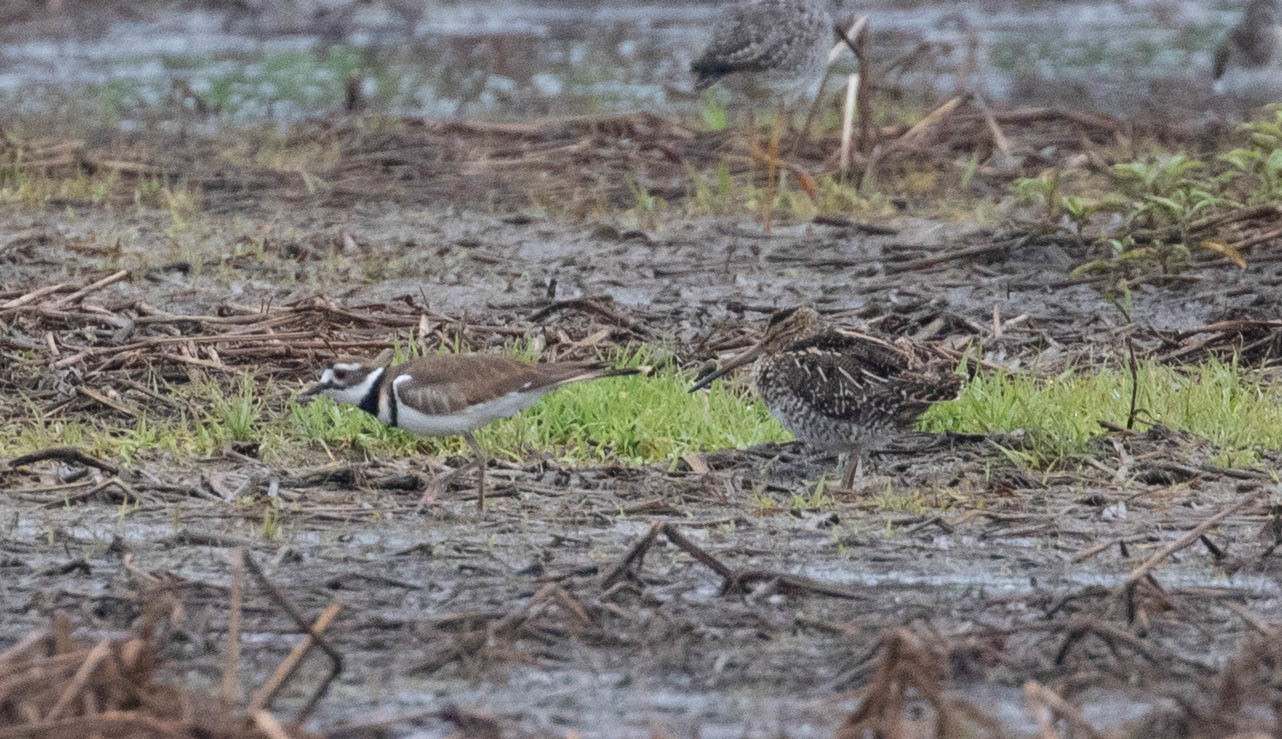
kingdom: Animalia
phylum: Chordata
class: Aves
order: Charadriiformes
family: Scolopacidae
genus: Gallinago
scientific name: Gallinago delicata
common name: Wilson's snipe
